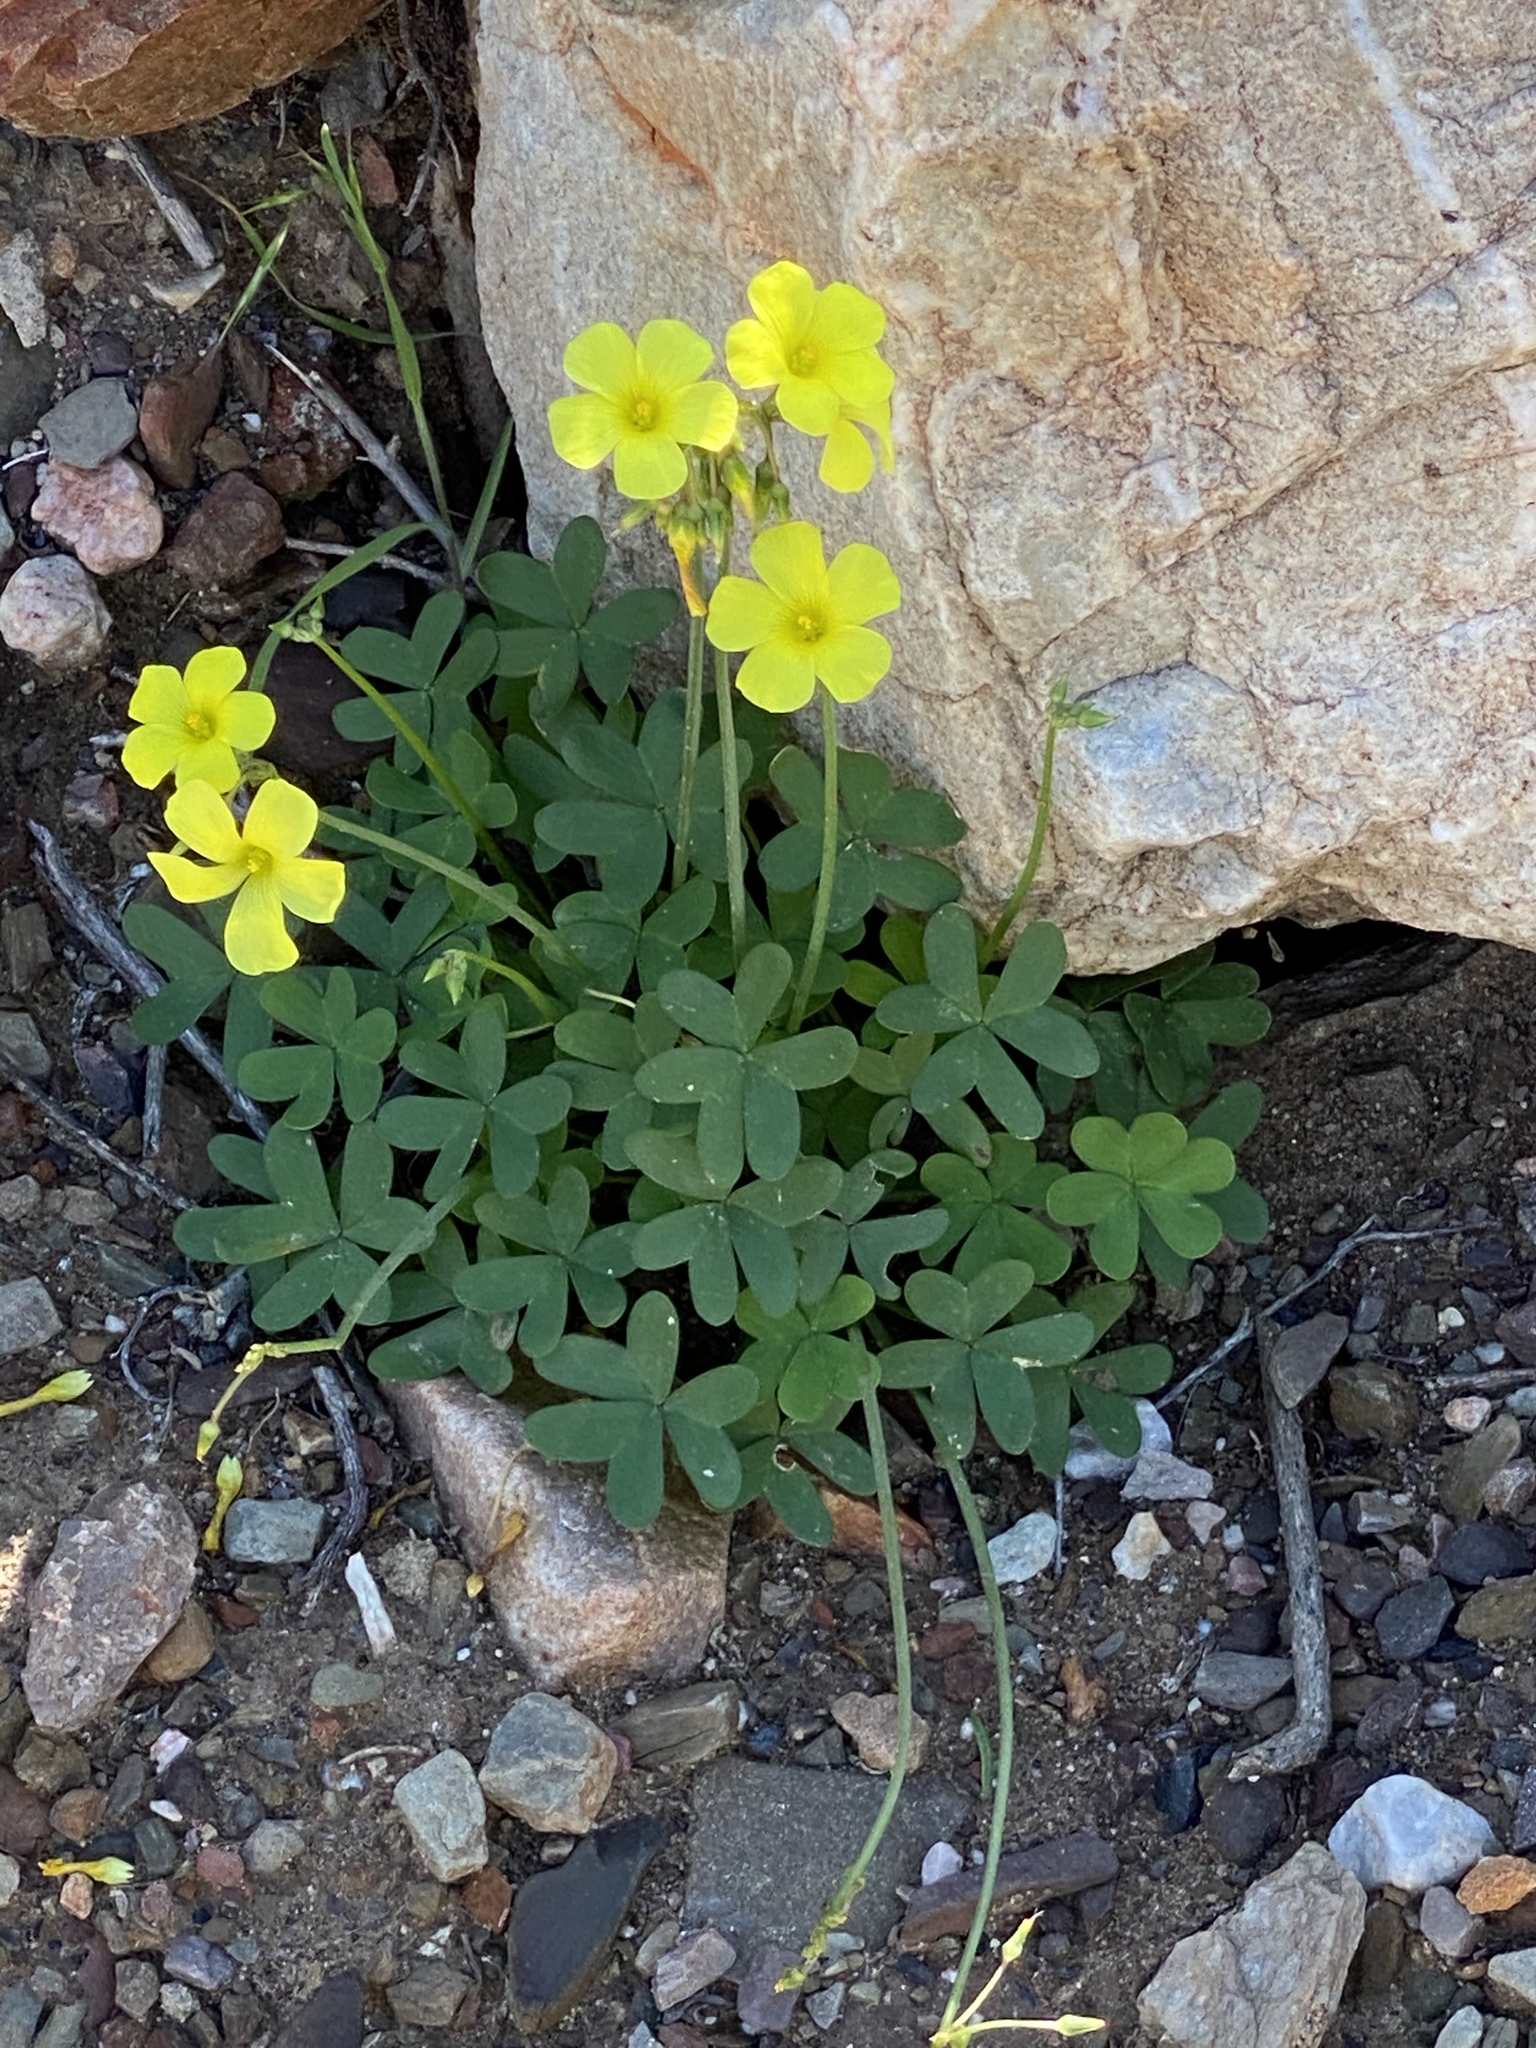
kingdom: Plantae
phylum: Tracheophyta
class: Magnoliopsida
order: Oxalidales
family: Oxalidaceae
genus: Oxalis
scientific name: Oxalis pes-caprae
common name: Bermuda-buttercup
